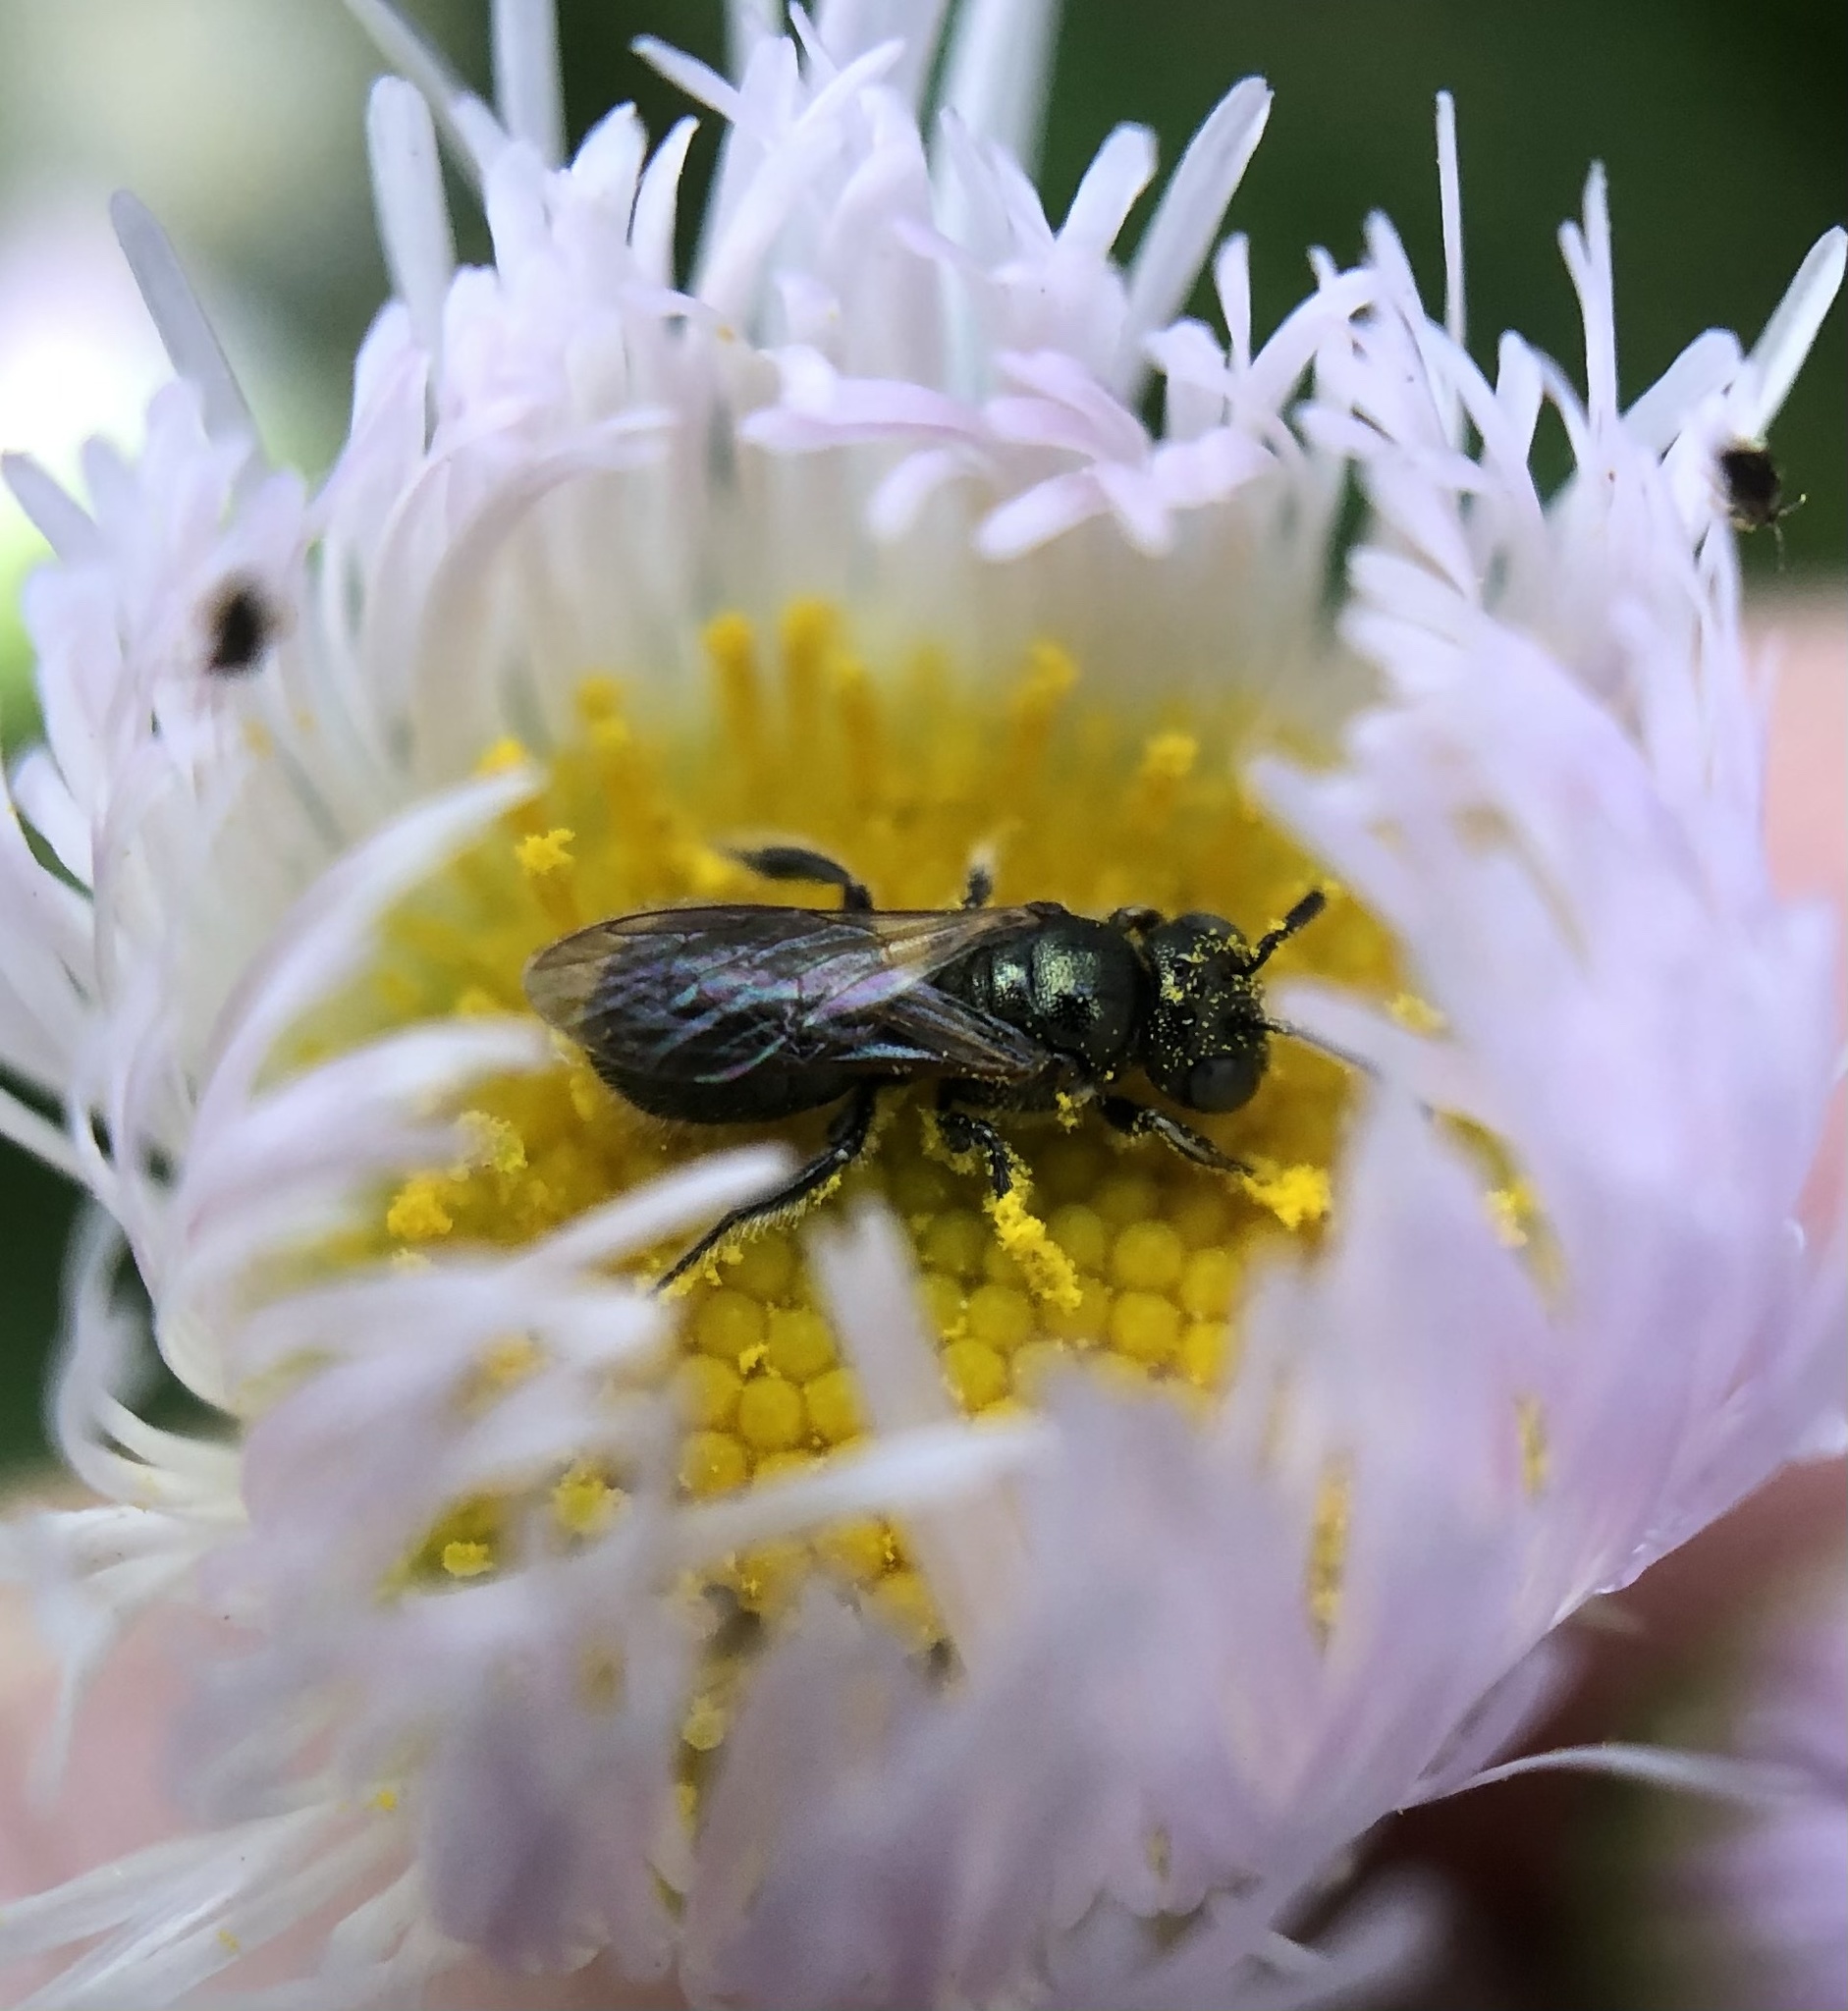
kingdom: Animalia
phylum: Arthropoda
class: Insecta
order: Hymenoptera
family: Apidae
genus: Ceratina
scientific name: Ceratina strenua
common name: Nimble carpenter bee
